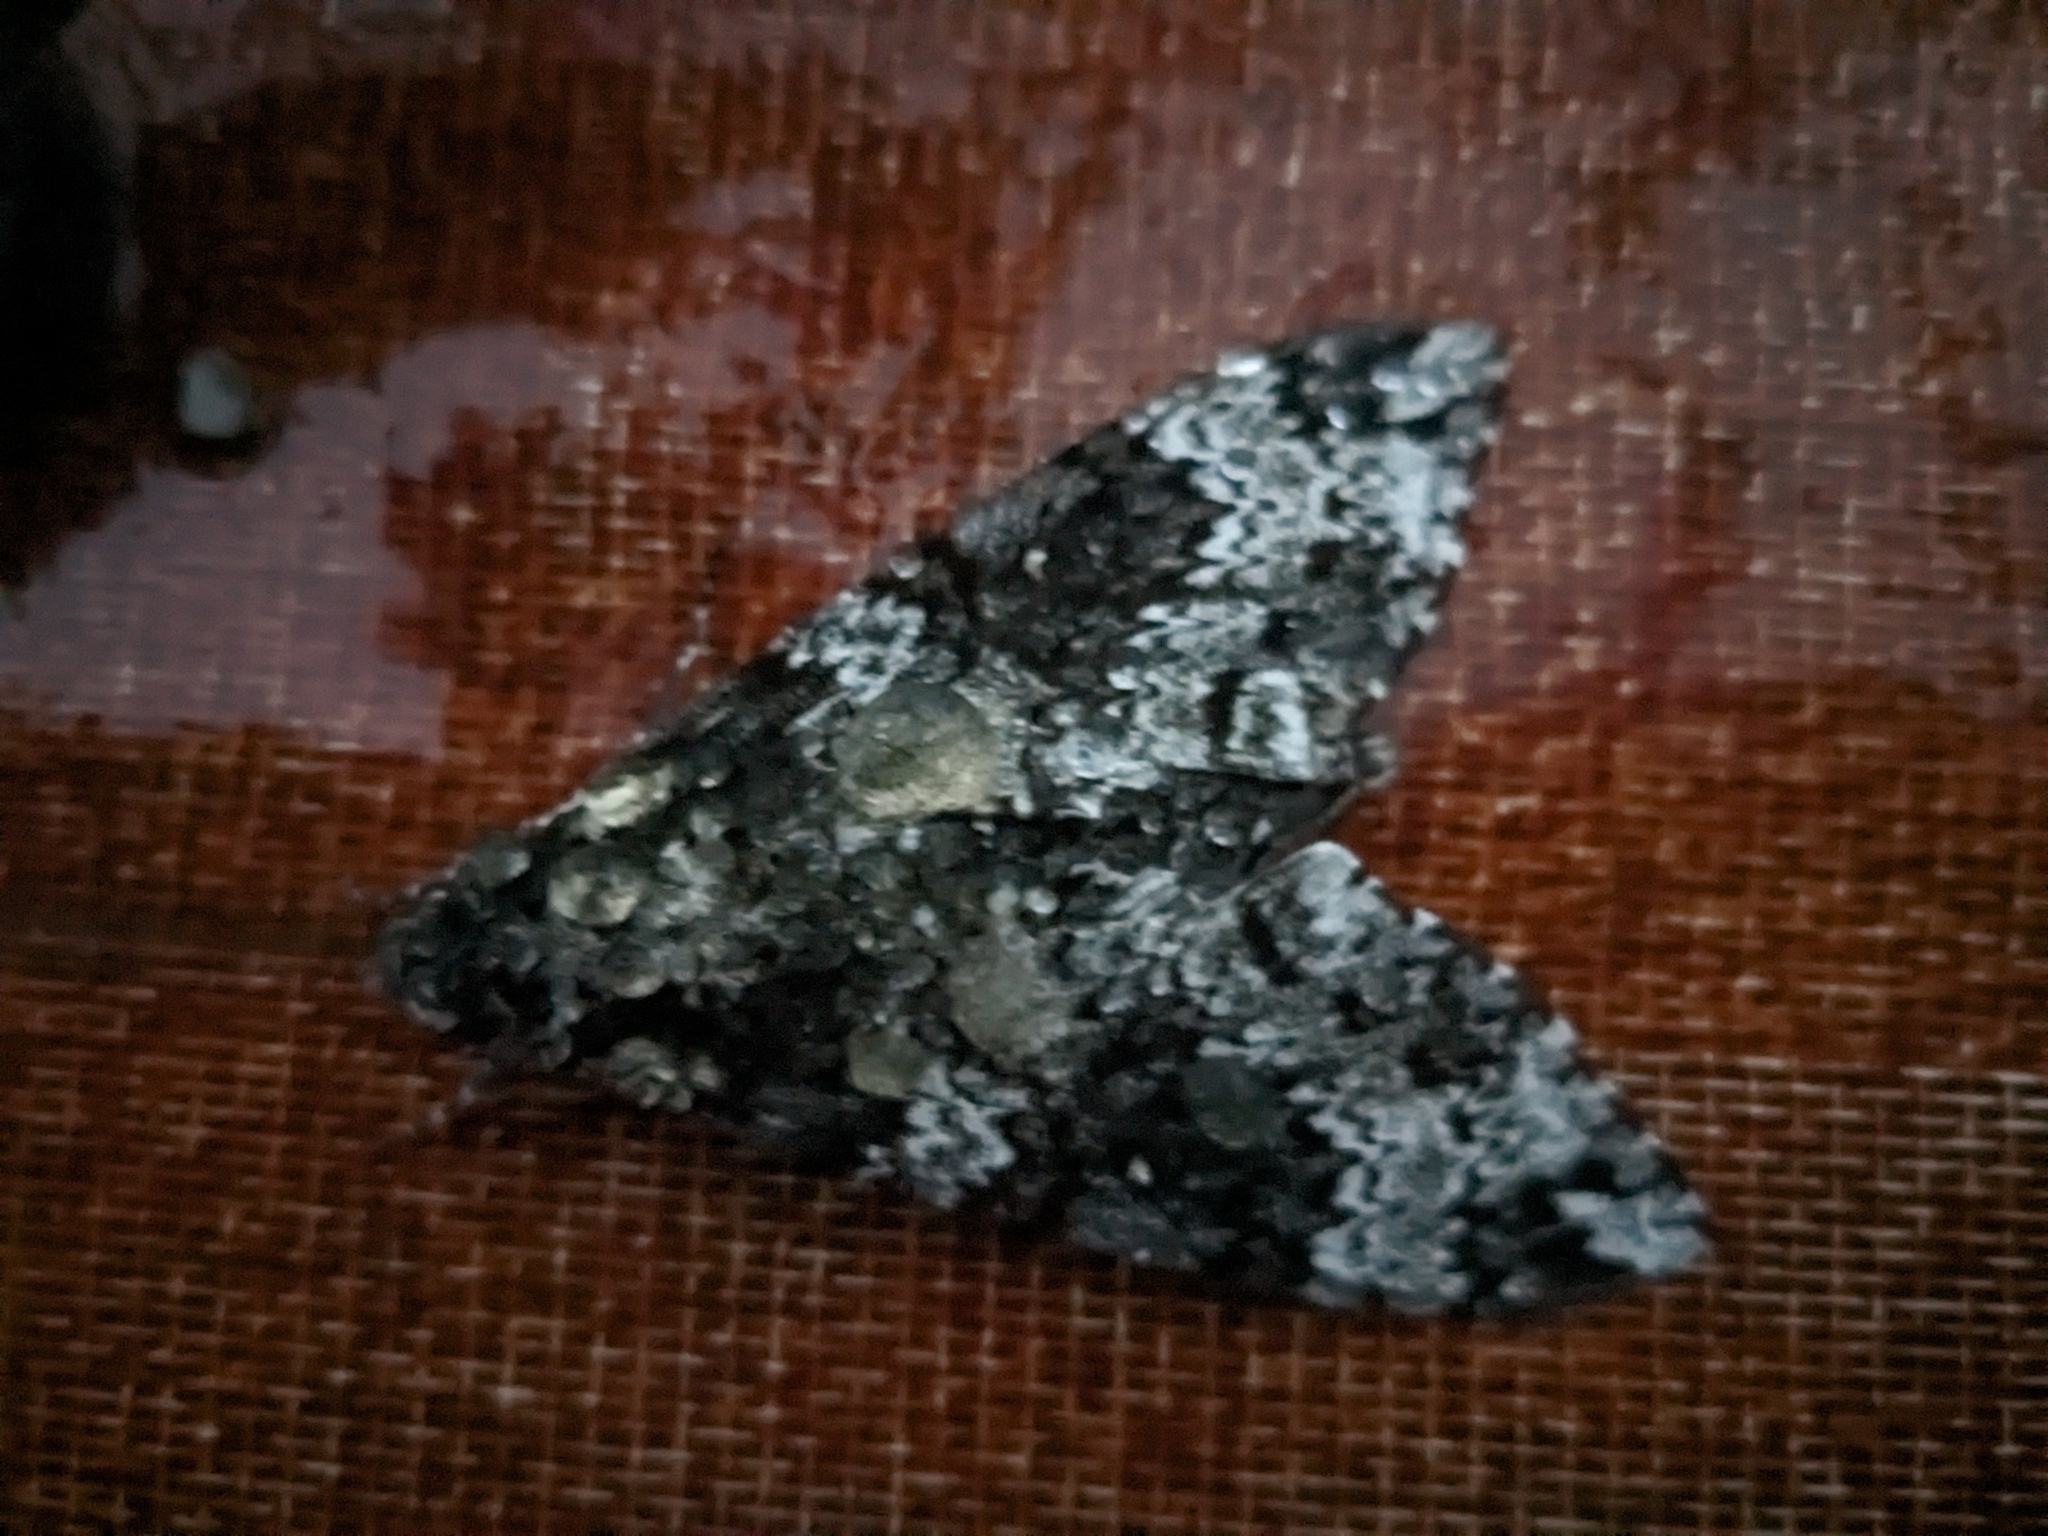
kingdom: Animalia
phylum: Arthropoda
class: Insecta
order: Lepidoptera
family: Sphingidae
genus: Manduca
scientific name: Manduca rustica
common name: Rustic sphinx
